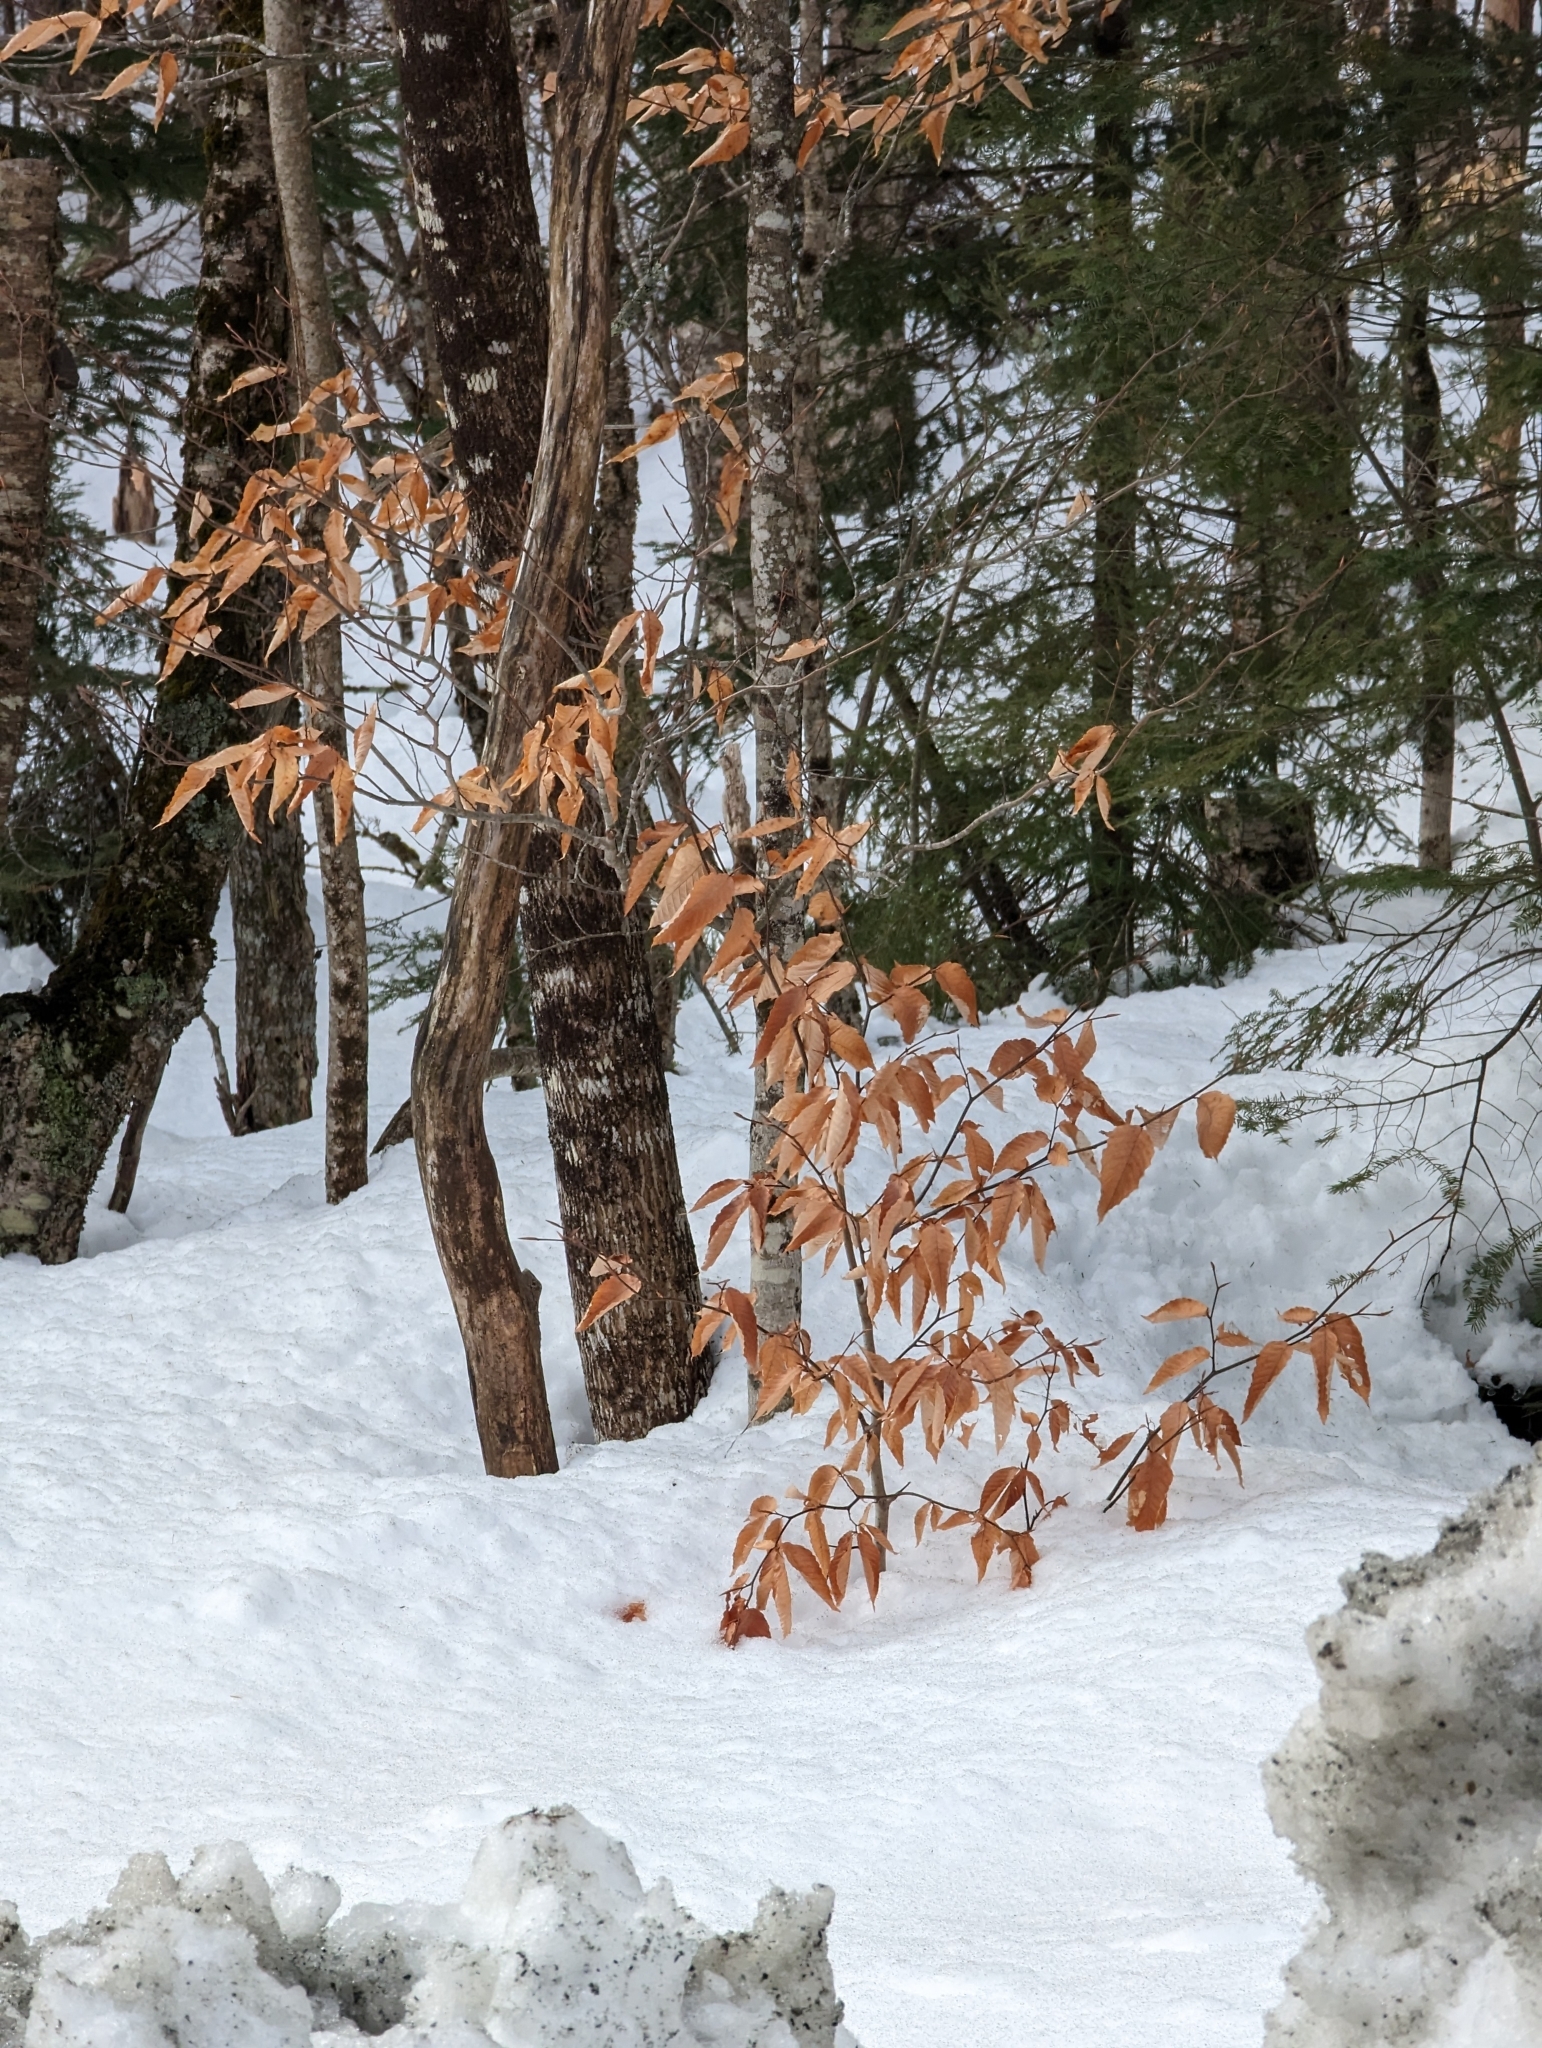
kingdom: Plantae
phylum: Tracheophyta
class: Magnoliopsida
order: Fagales
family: Fagaceae
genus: Fagus
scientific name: Fagus grandifolia
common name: American beech
